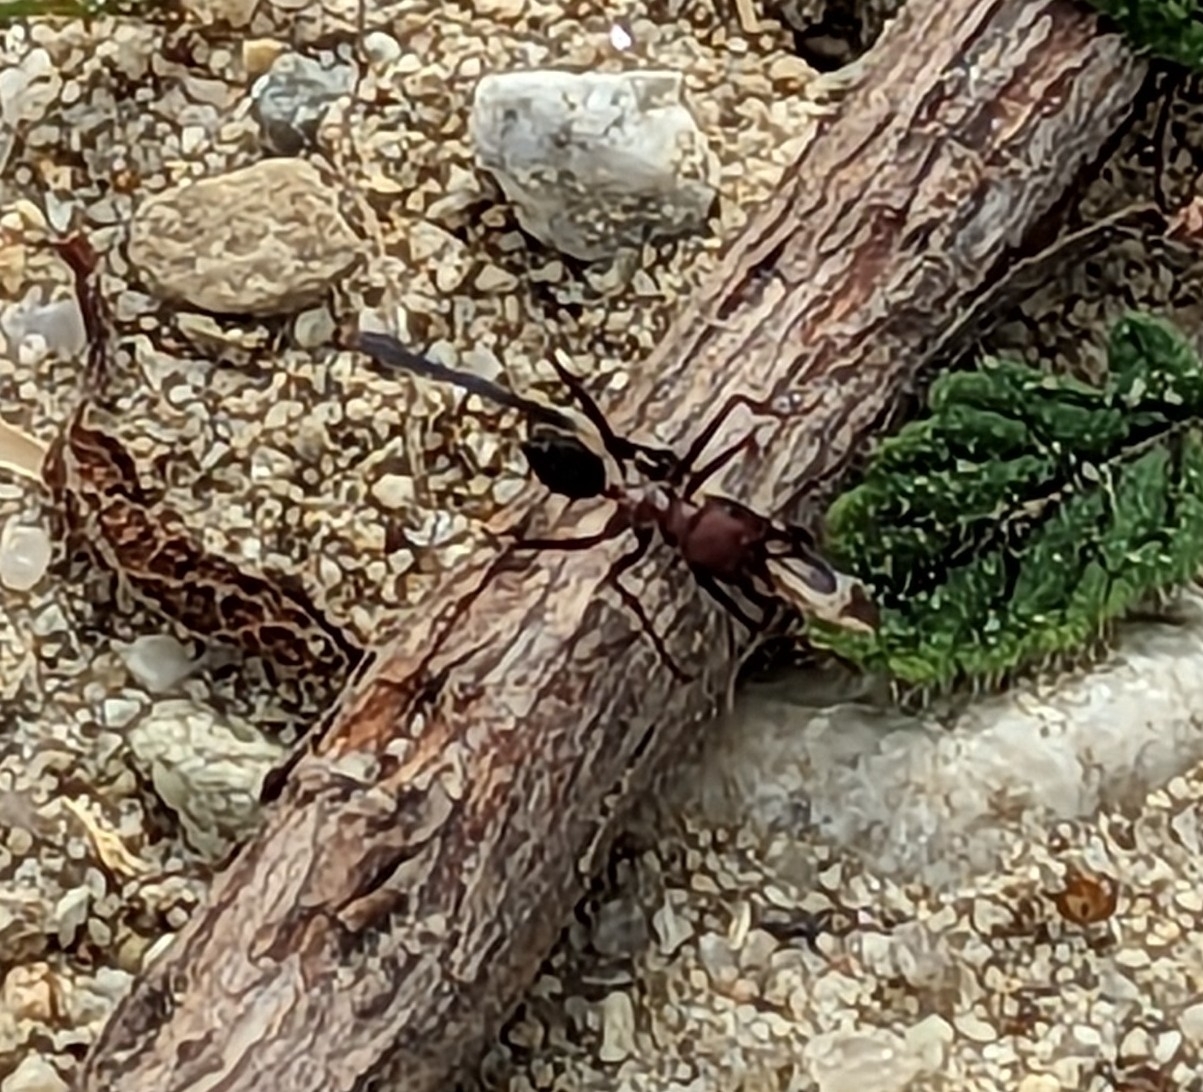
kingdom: Animalia
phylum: Arthropoda
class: Insecta
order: Hymenoptera
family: Formicidae
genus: Cataglyphis
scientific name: Cataglyphis nodus
